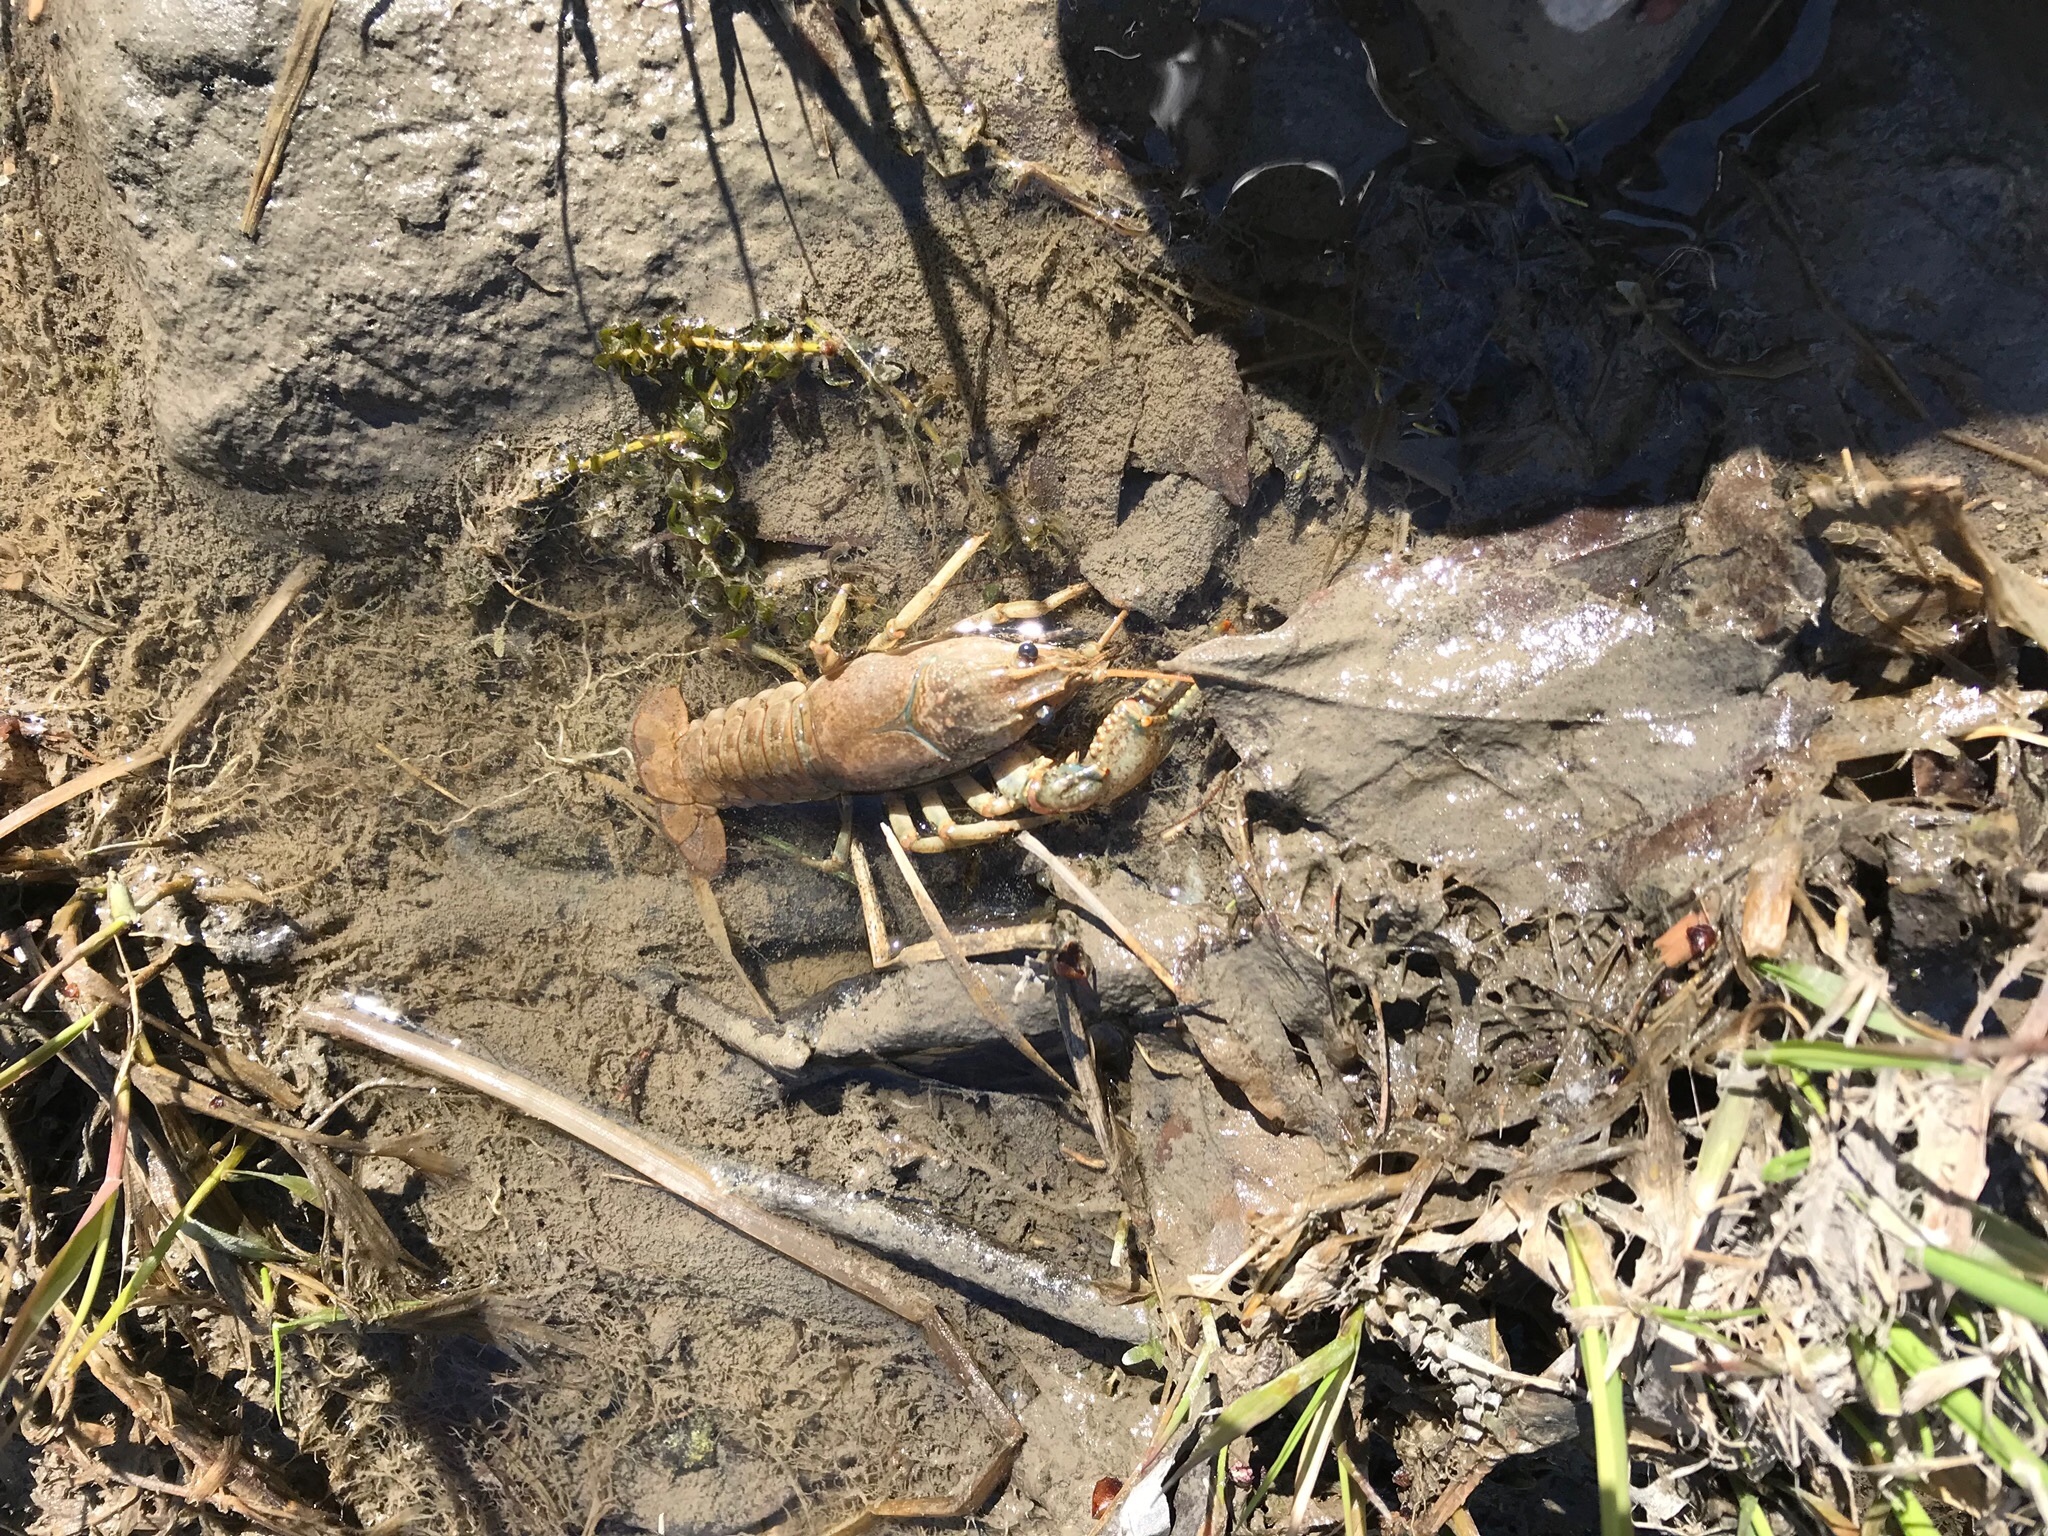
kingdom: Animalia
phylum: Arthropoda
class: Malacostraca
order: Decapoda
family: Cambaridae
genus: Faxonius
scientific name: Faxonius virilis
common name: Virile crayfish
